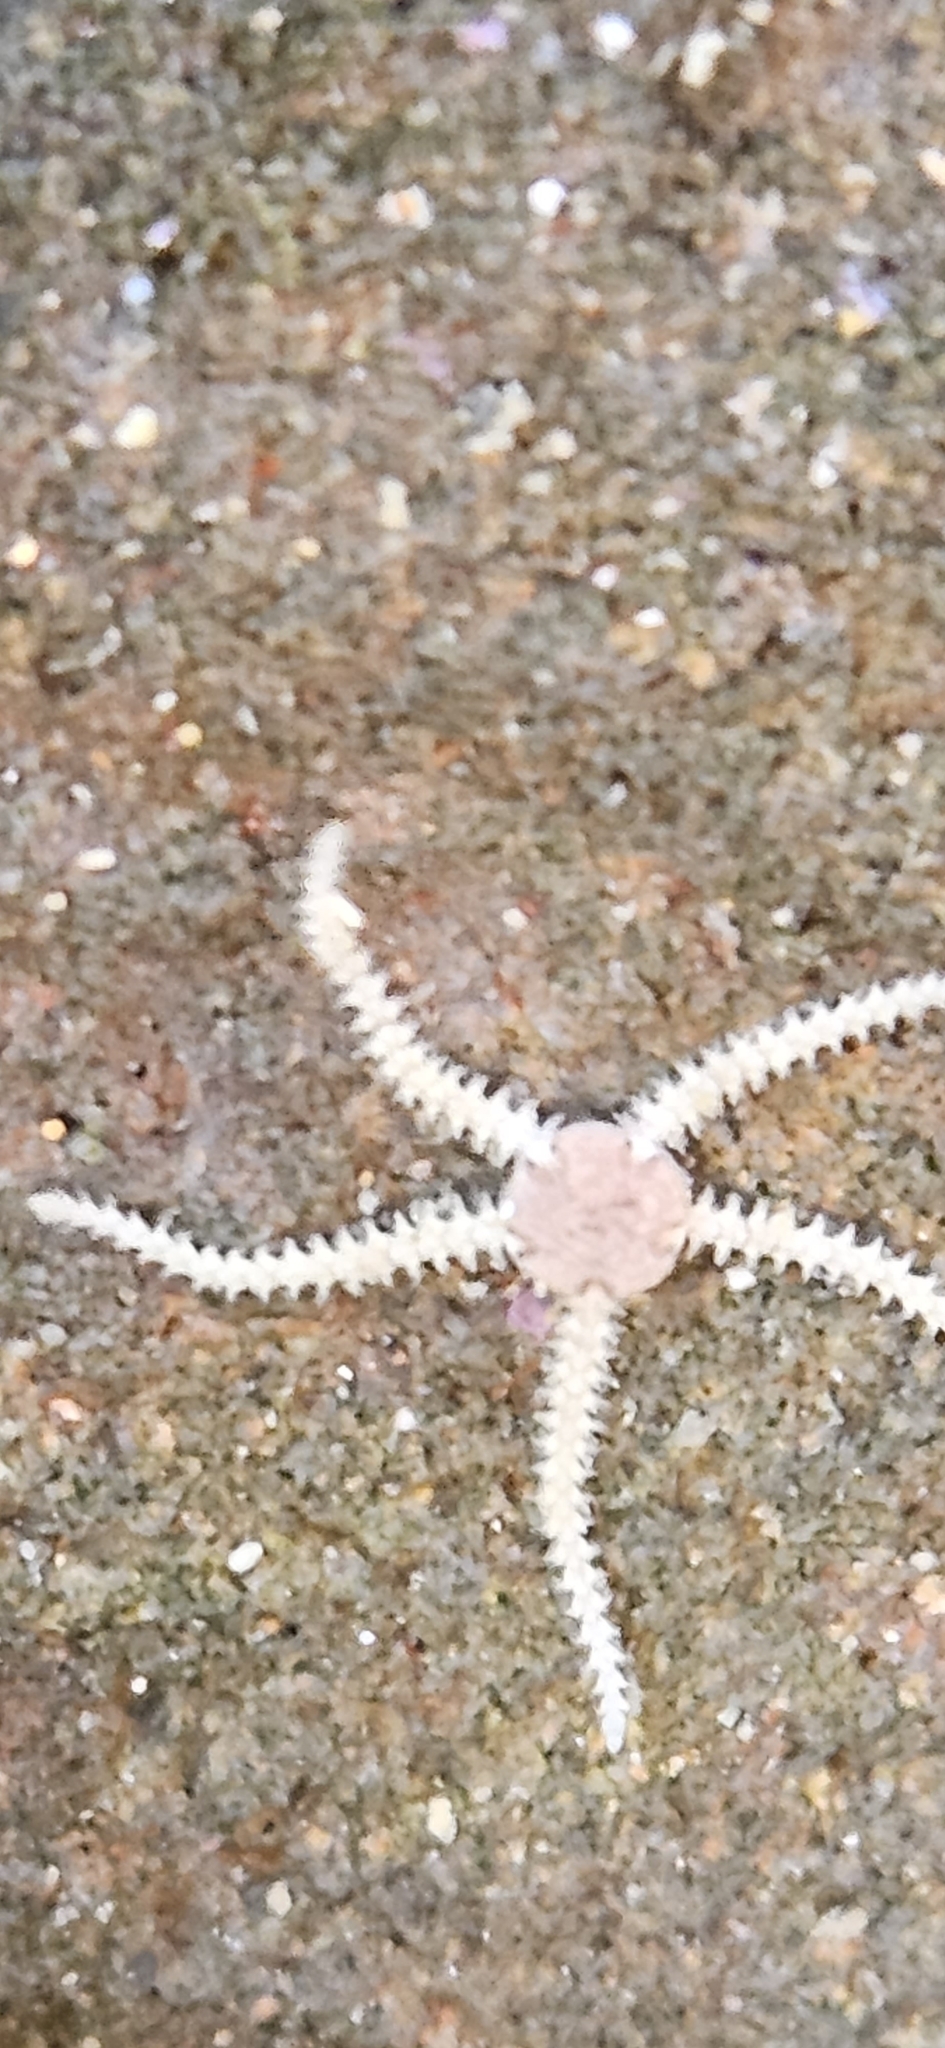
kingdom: Animalia
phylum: Echinodermata
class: Ophiuroidea
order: Amphilepidida
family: Amphiuridae
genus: Amphipholis
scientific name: Amphipholis squamata
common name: Brooding snake star
